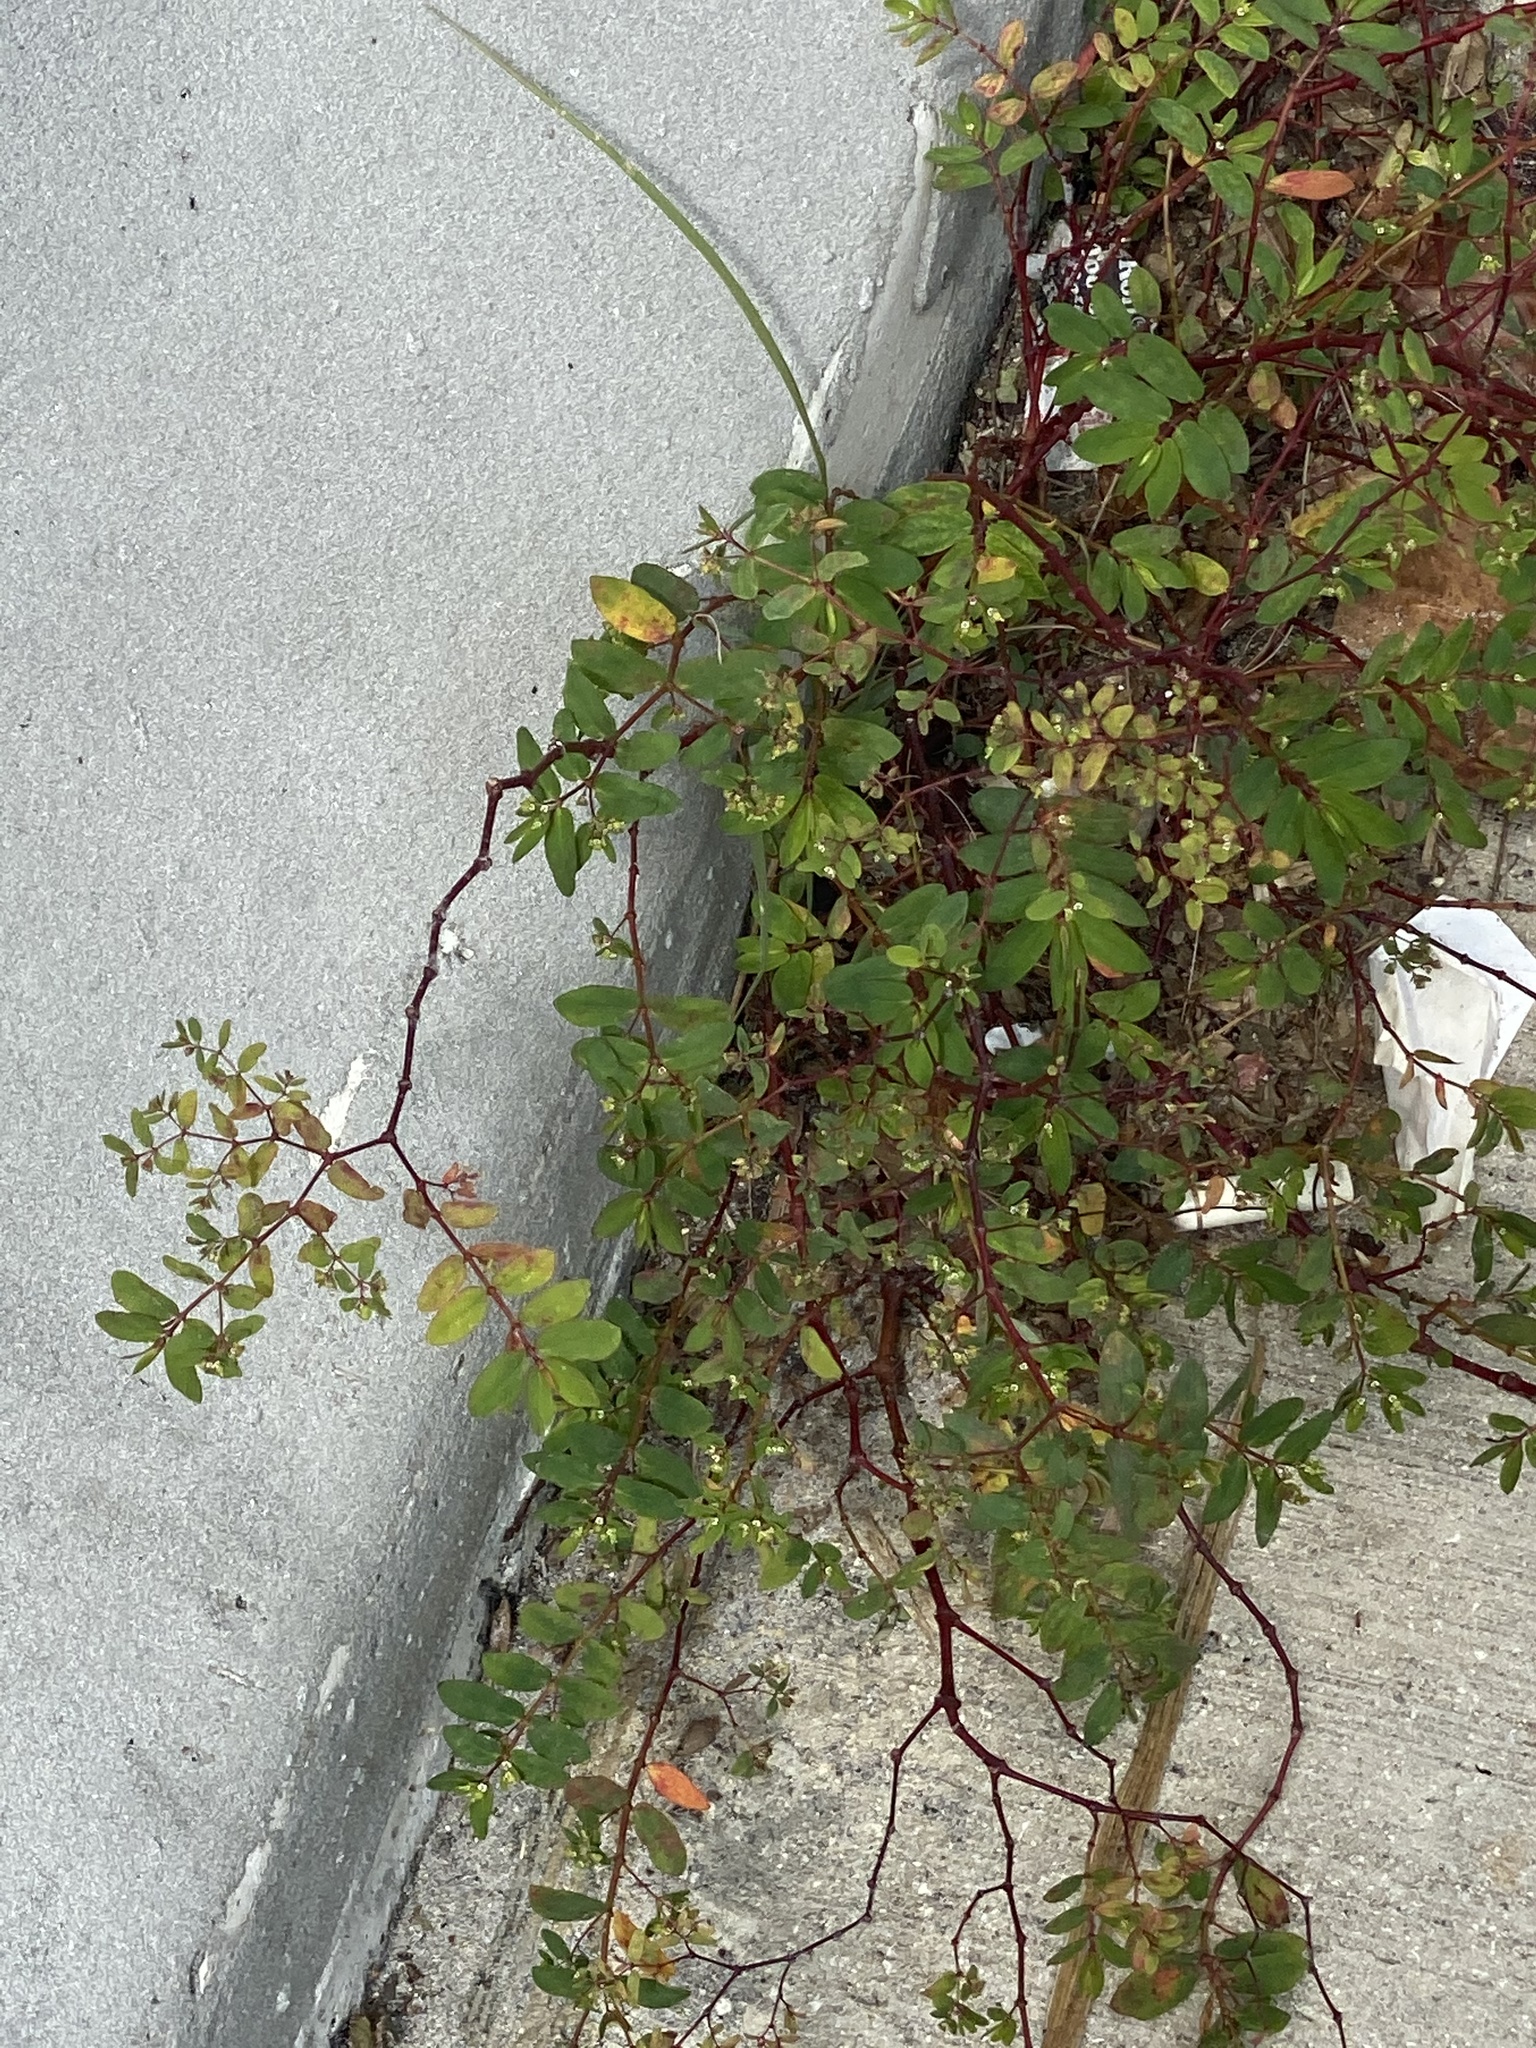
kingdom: Plantae
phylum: Tracheophyta
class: Magnoliopsida
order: Malpighiales
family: Euphorbiaceae
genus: Euphorbia
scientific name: Euphorbia hyssopifolia
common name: Hyssopleaf sandmat
